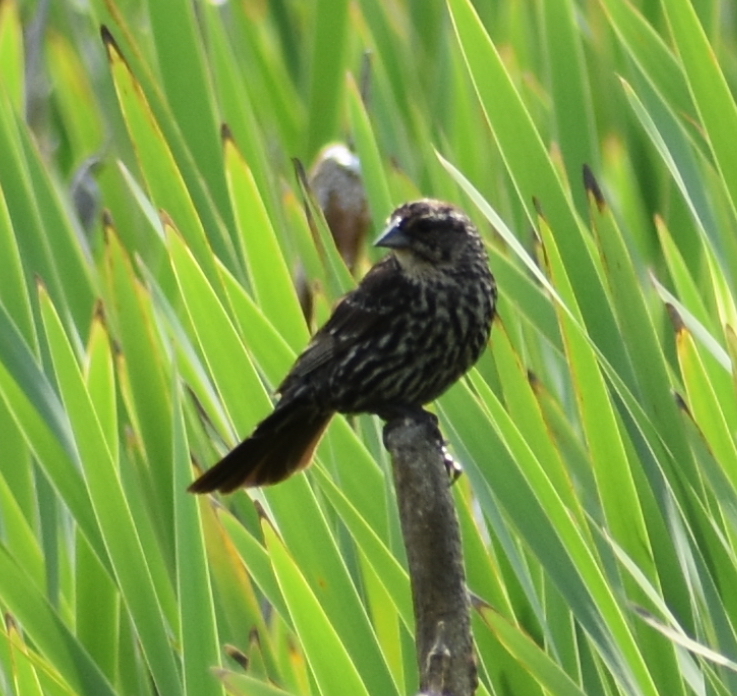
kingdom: Animalia
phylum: Chordata
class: Aves
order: Passeriformes
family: Icteridae
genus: Agelaius
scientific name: Agelaius phoeniceus
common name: Red-winged blackbird
